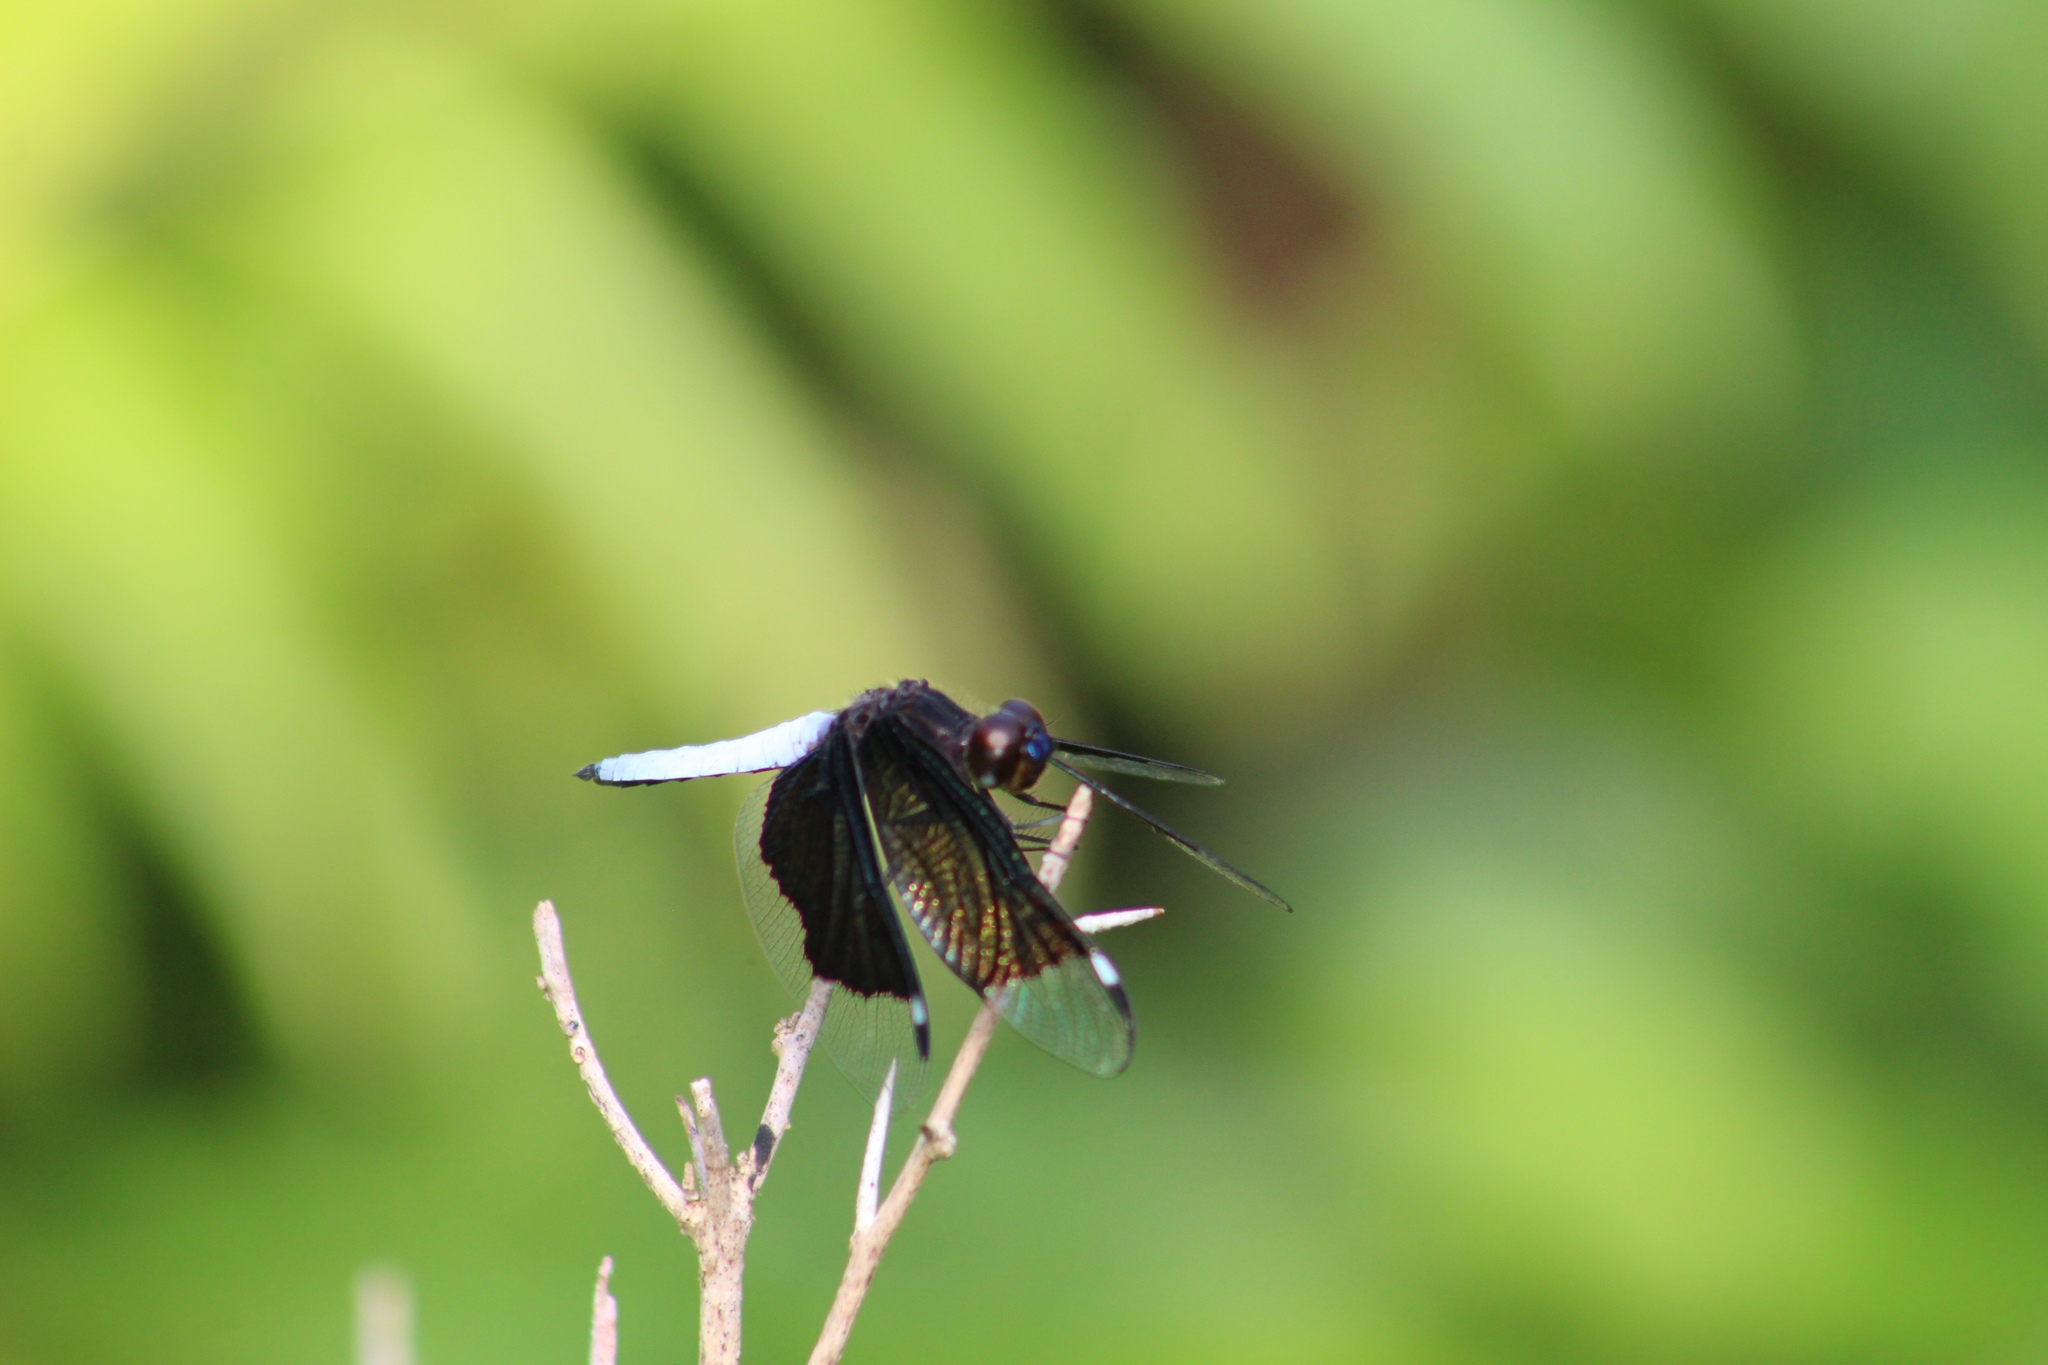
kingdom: Animalia
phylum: Arthropoda
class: Insecta
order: Odonata
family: Libellulidae
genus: Palpopleura
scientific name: Palpopleura lucia
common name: Lucia widow
